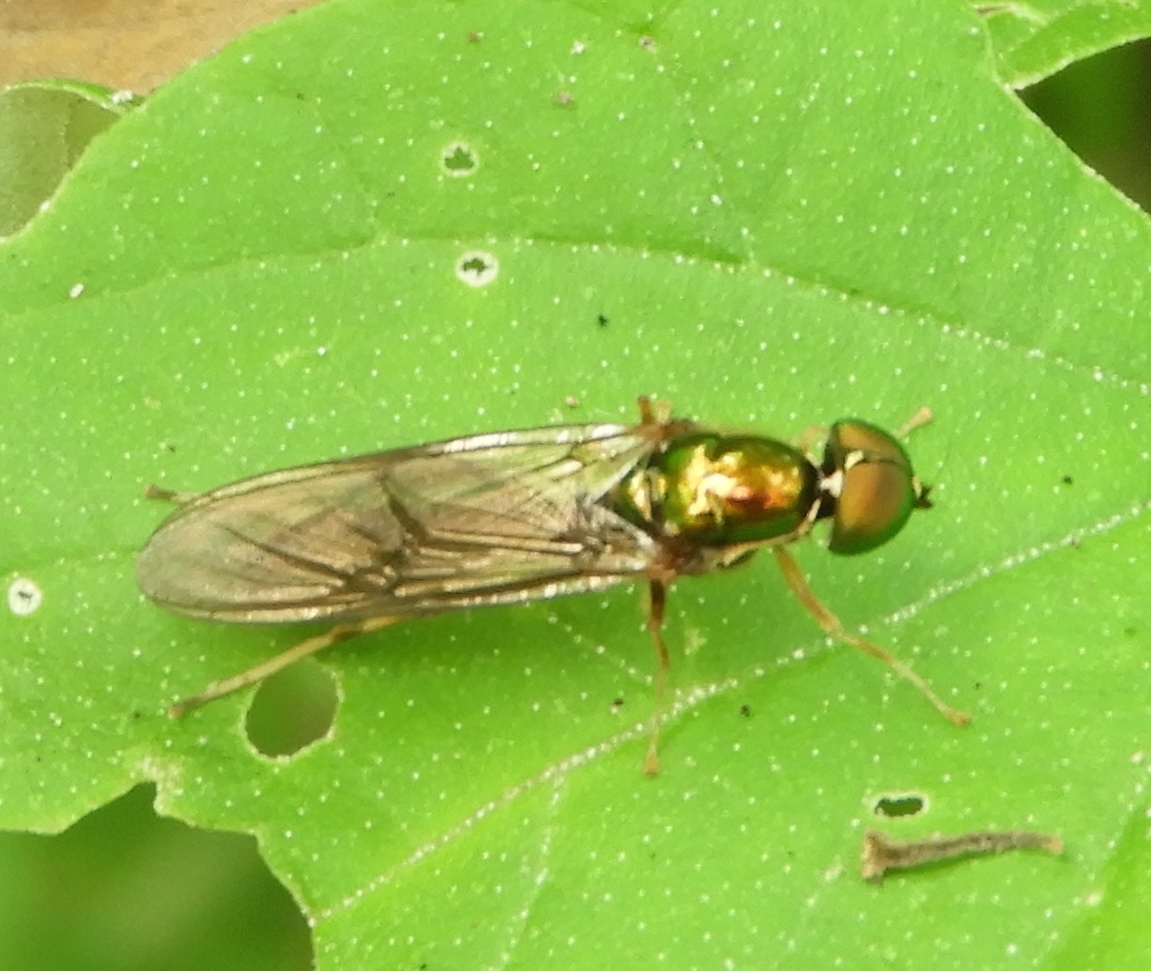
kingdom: Animalia
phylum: Arthropoda
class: Insecta
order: Diptera
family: Stratiomyidae
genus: Sargus
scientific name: Sargus fasciatus
